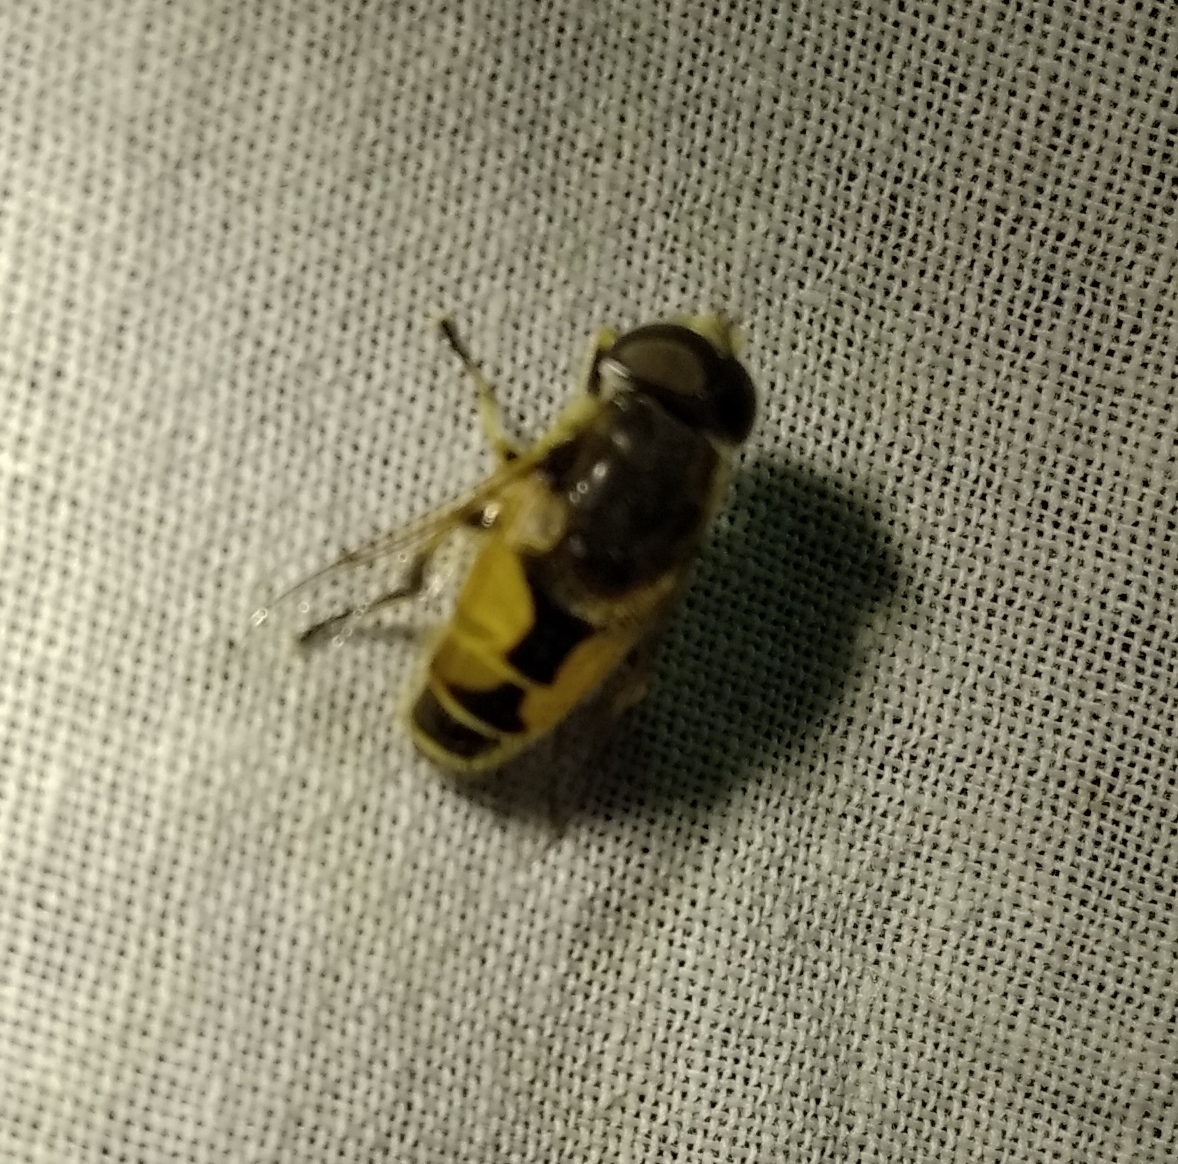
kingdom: Animalia
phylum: Arthropoda
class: Insecta
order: Diptera
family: Syrphidae
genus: Eristalis
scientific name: Eristalis arbustorum
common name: Hover fly
